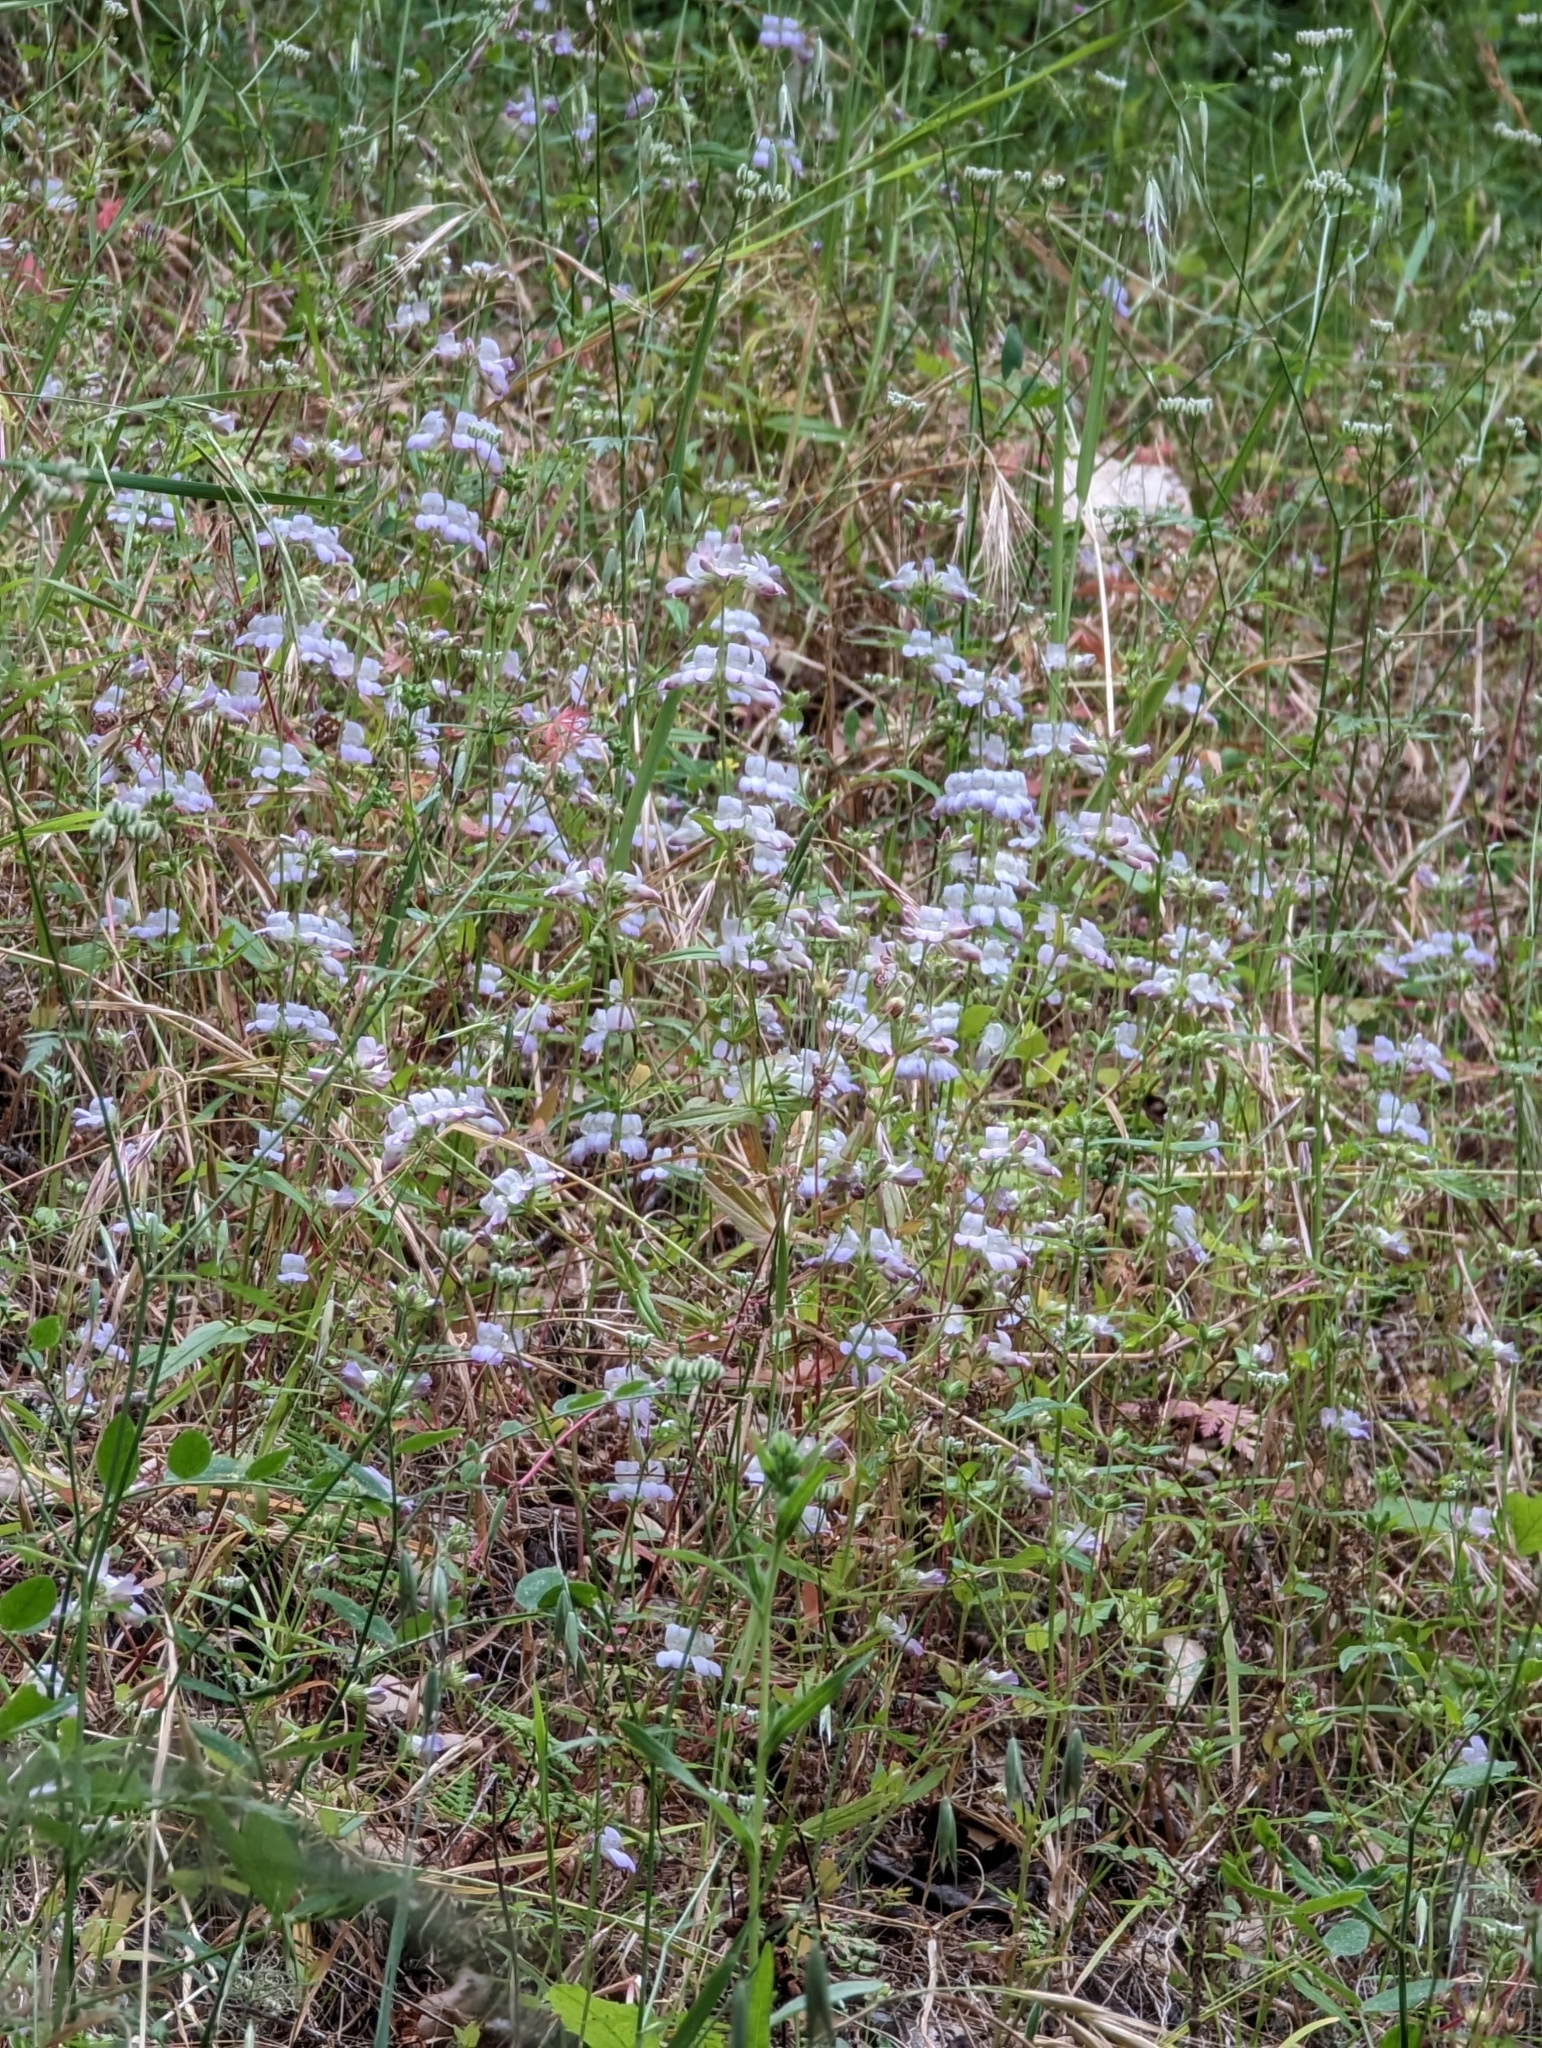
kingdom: Plantae
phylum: Tracheophyta
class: Magnoliopsida
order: Lamiales
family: Plantaginaceae
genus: Collinsia
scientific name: Collinsia heterophylla
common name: Chinese-houses
